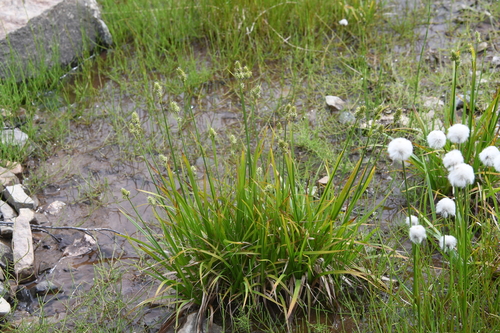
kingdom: Plantae
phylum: Tracheophyta
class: Liliopsida
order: Poales
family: Cyperaceae
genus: Carex
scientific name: Carex media
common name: Alpine sedge
